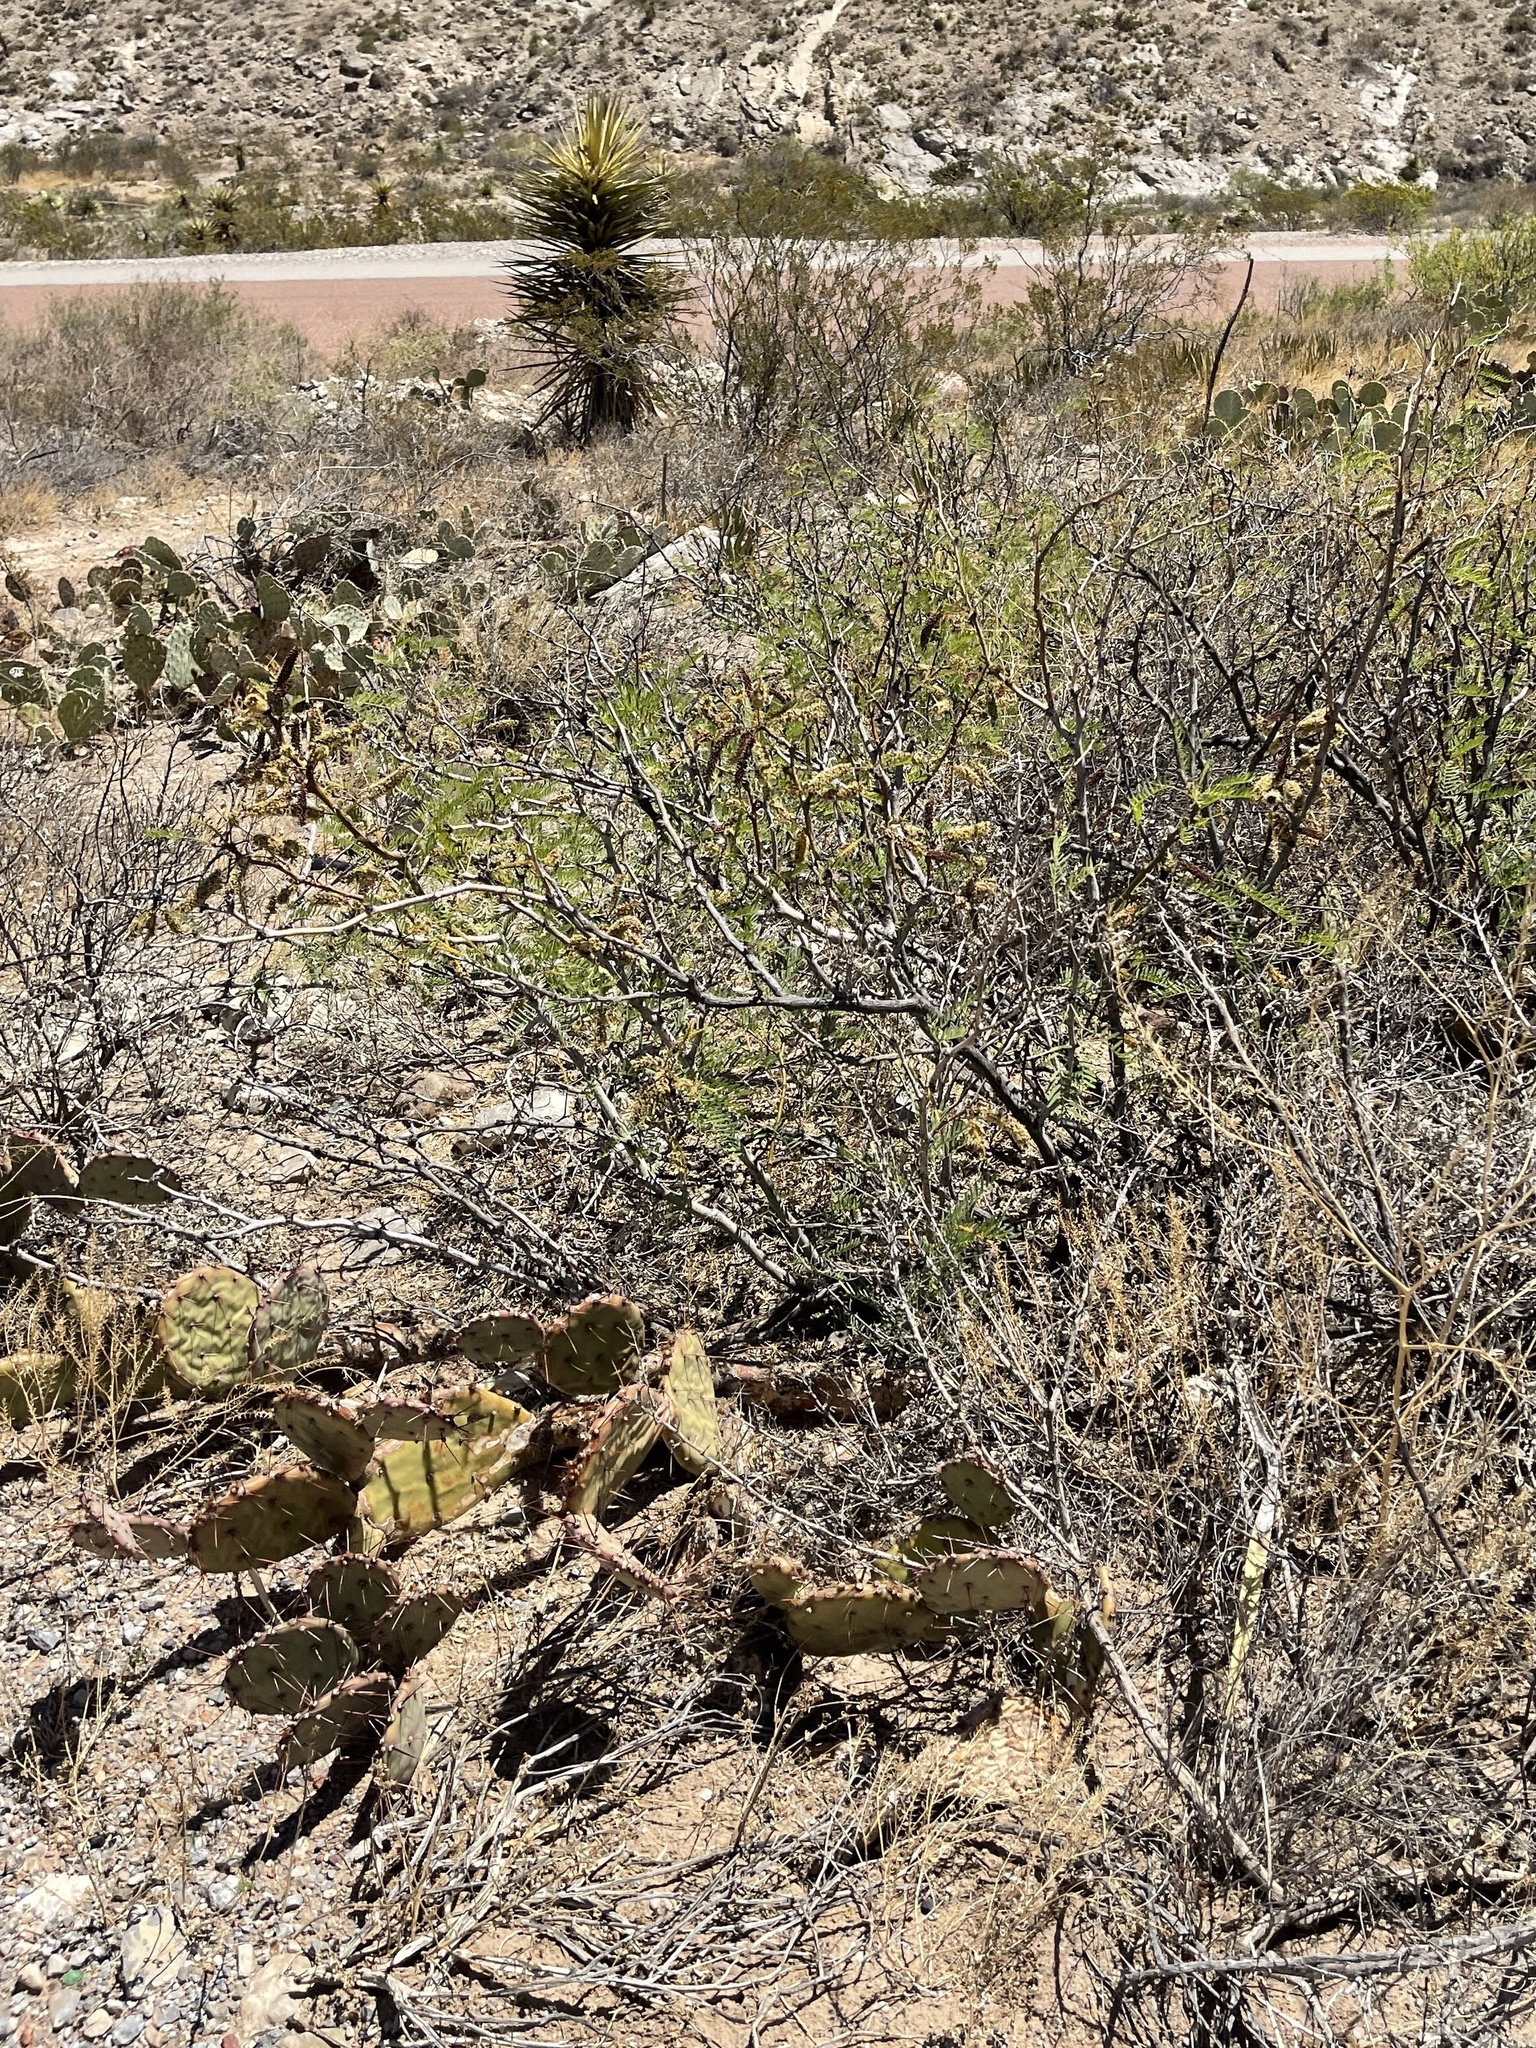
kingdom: Plantae
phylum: Tracheophyta
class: Magnoliopsida
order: Fabales
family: Fabaceae
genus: Prosopis
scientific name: Prosopis glandulosa
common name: Honey mesquite
